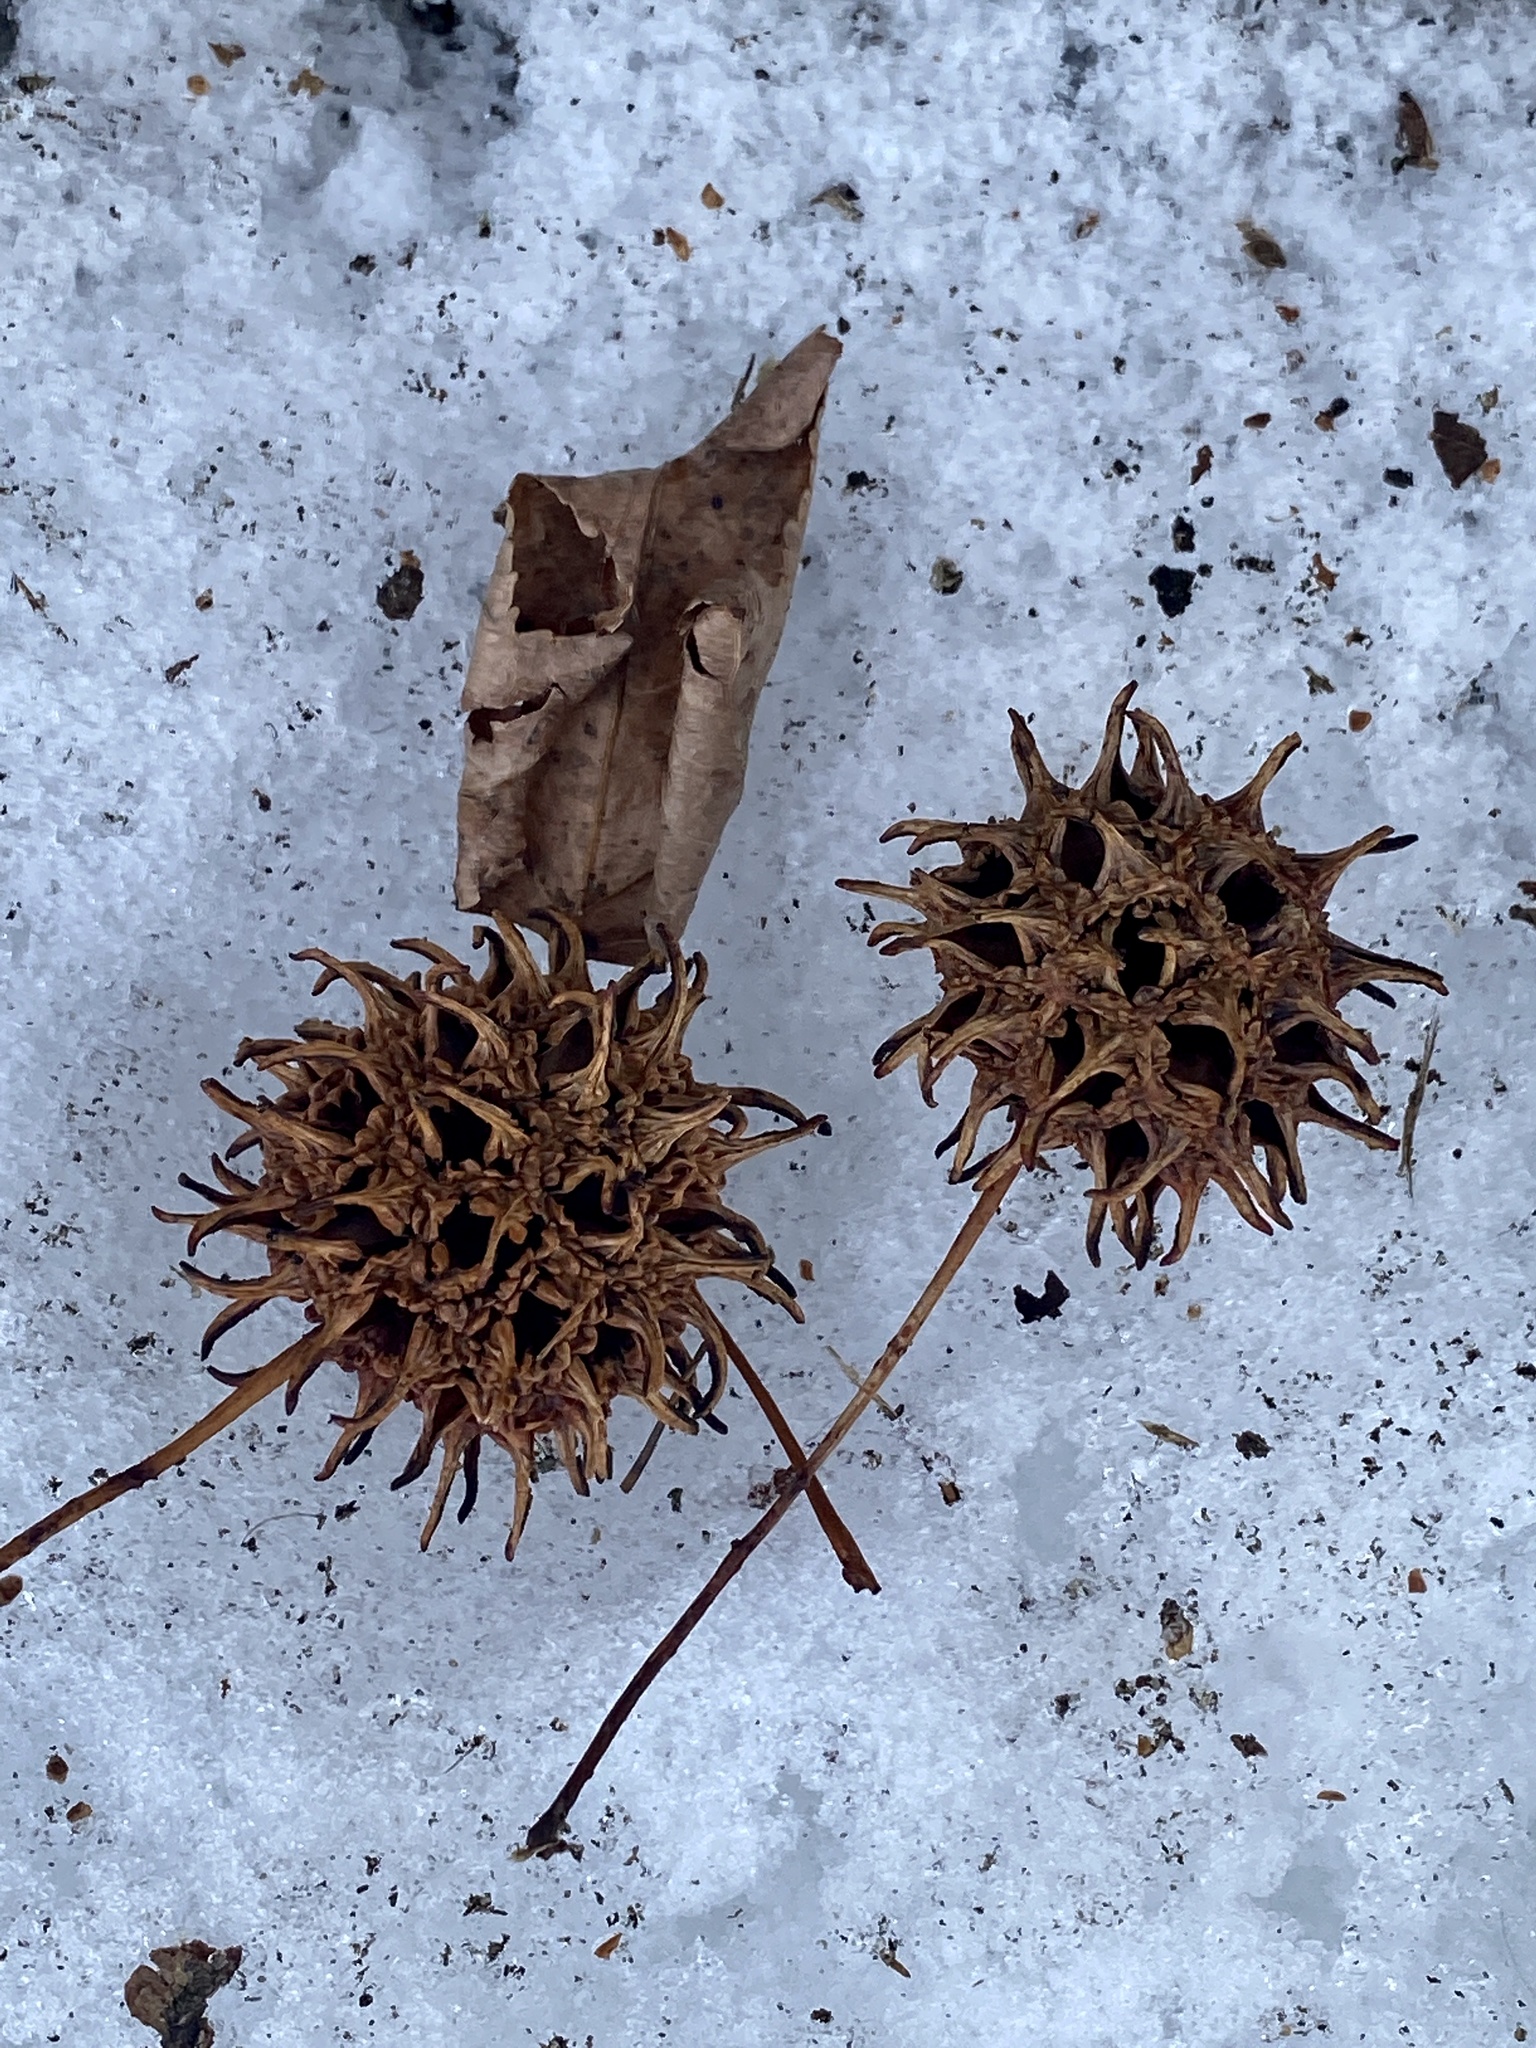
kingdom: Plantae
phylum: Tracheophyta
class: Magnoliopsida
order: Saxifragales
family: Altingiaceae
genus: Liquidambar
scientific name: Liquidambar styraciflua
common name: Sweet gum
